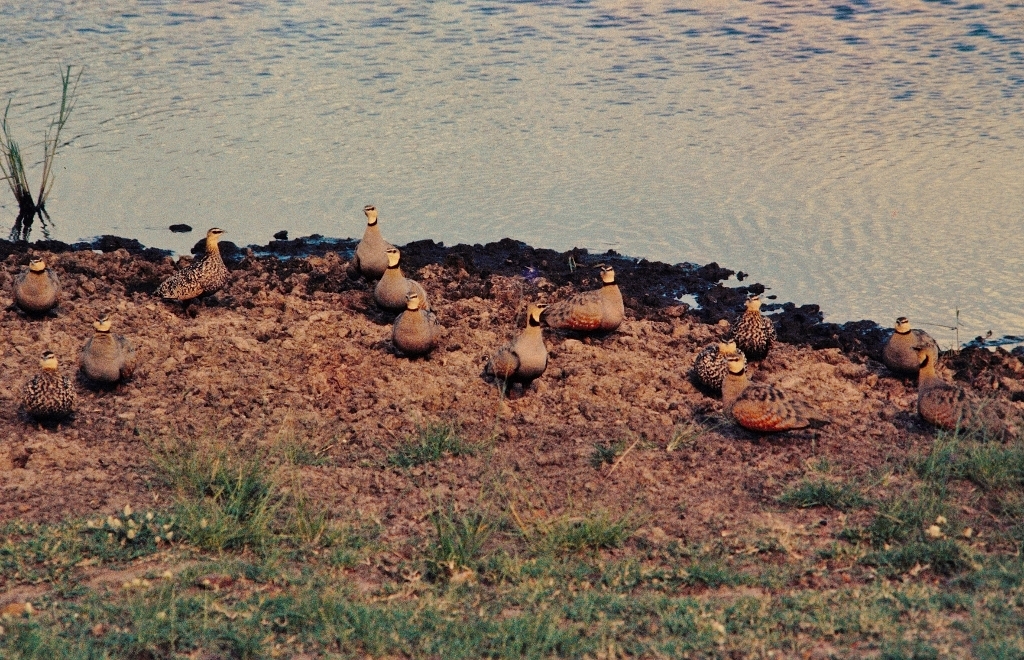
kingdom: Animalia
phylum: Chordata
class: Aves
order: Pteroclidiformes
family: Pteroclididae
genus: Pterocles
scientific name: Pterocles gutturalis
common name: Yellow-throated sandgrouse
